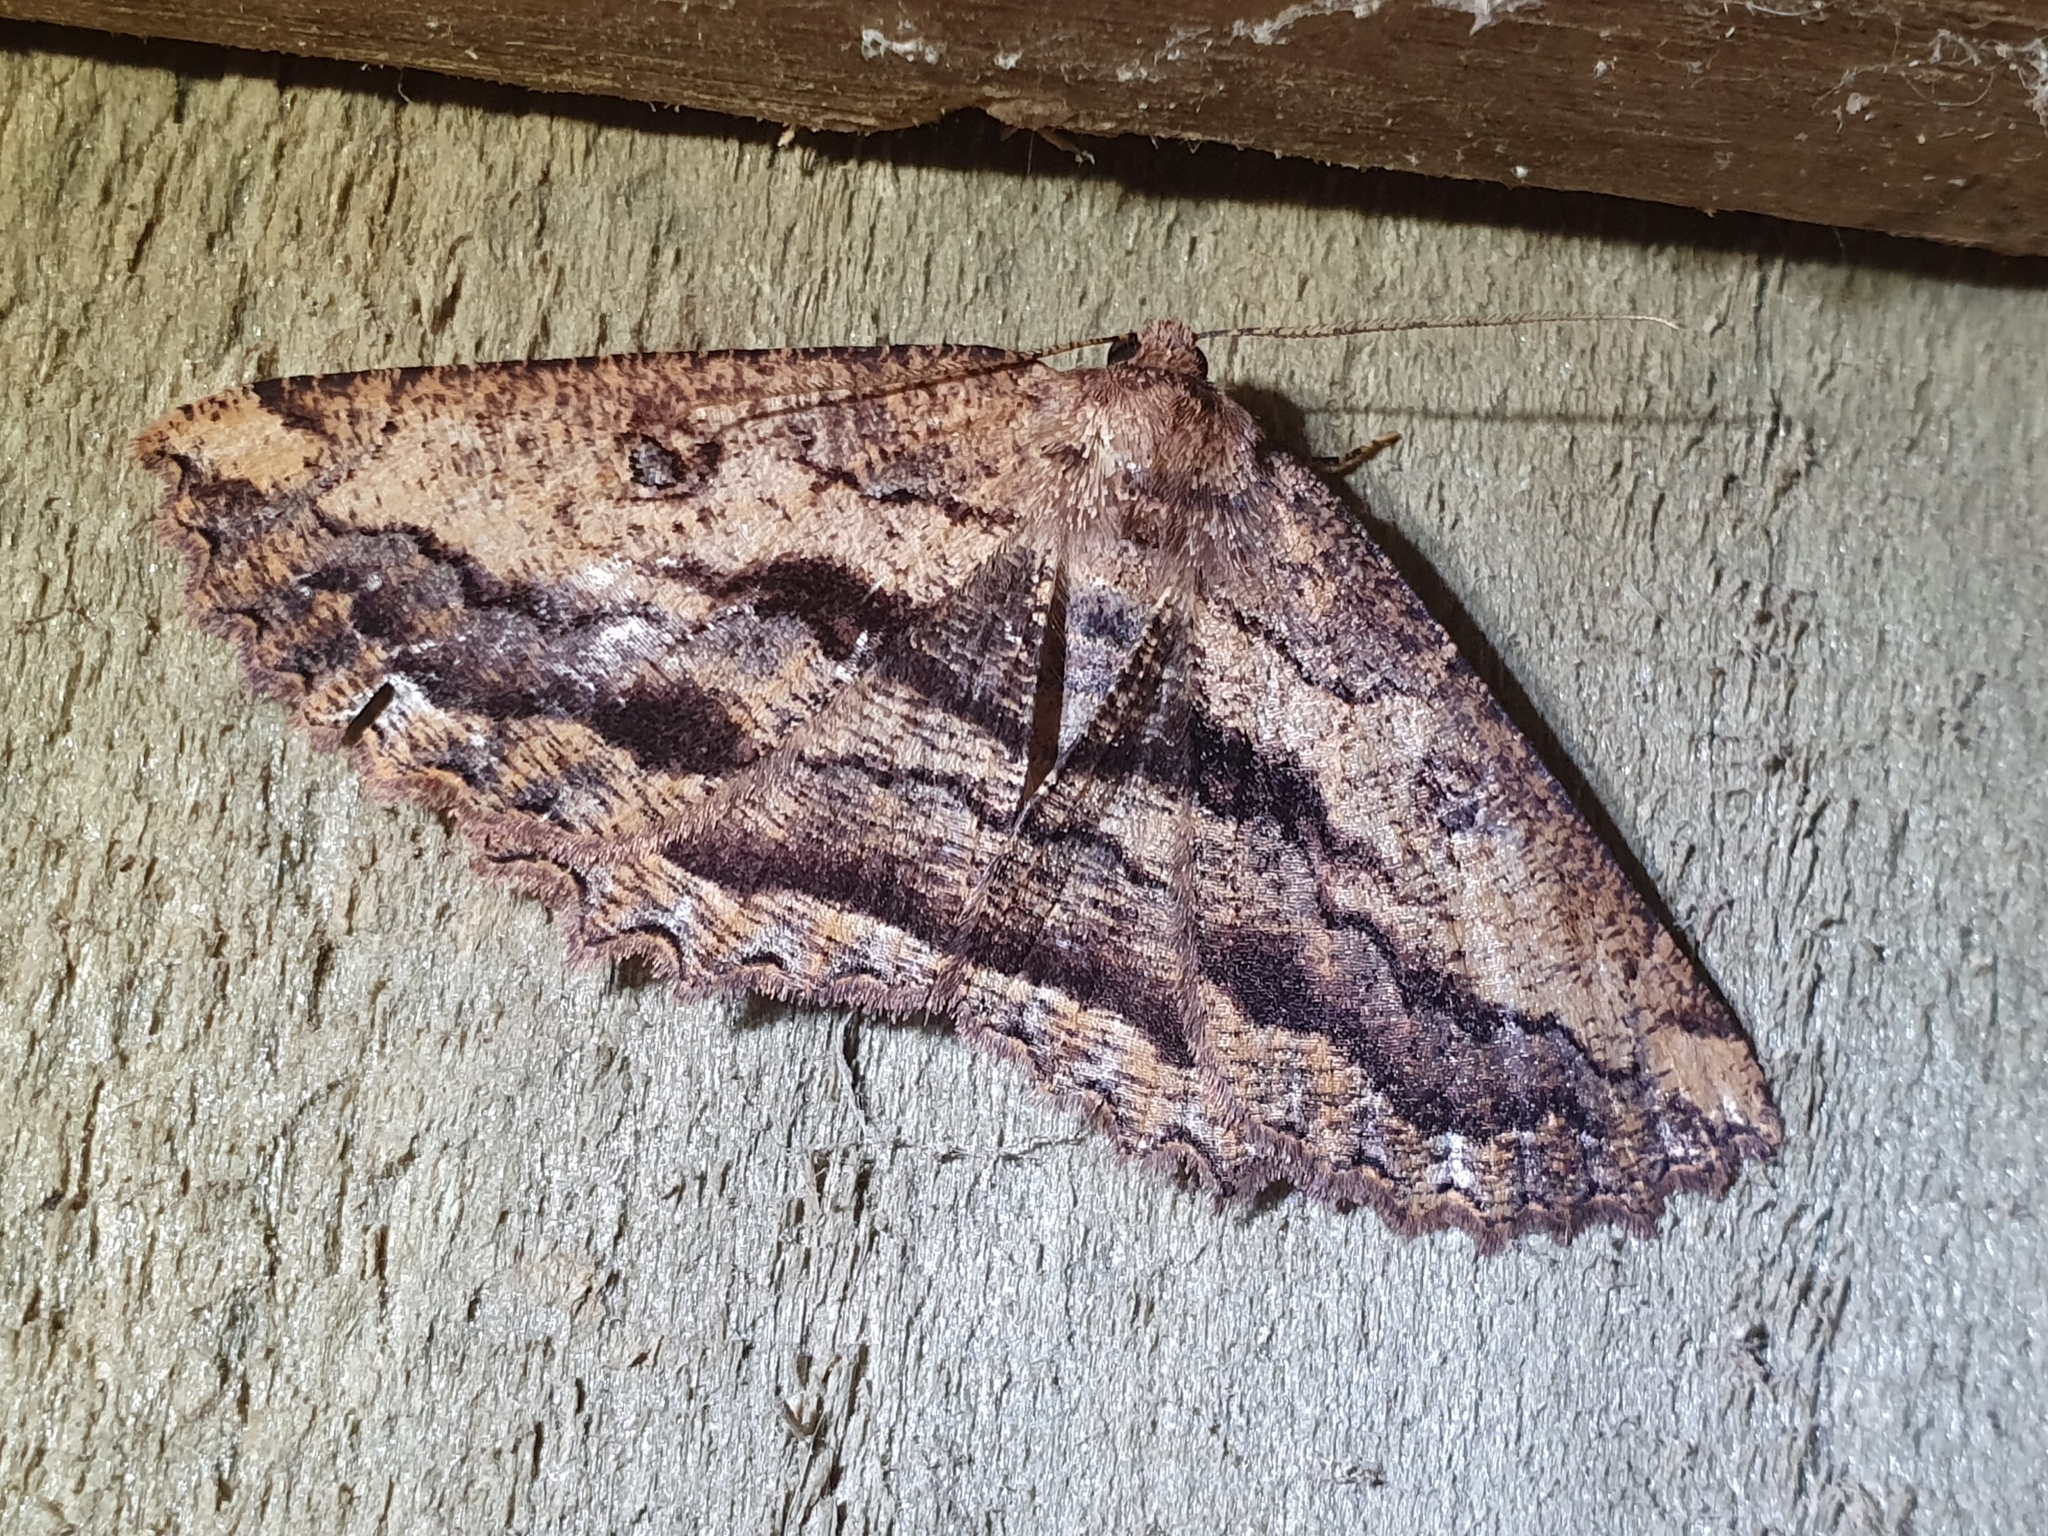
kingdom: Animalia
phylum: Arthropoda
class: Insecta
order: Lepidoptera
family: Geometridae
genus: Gellonia
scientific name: Gellonia dejectaria
